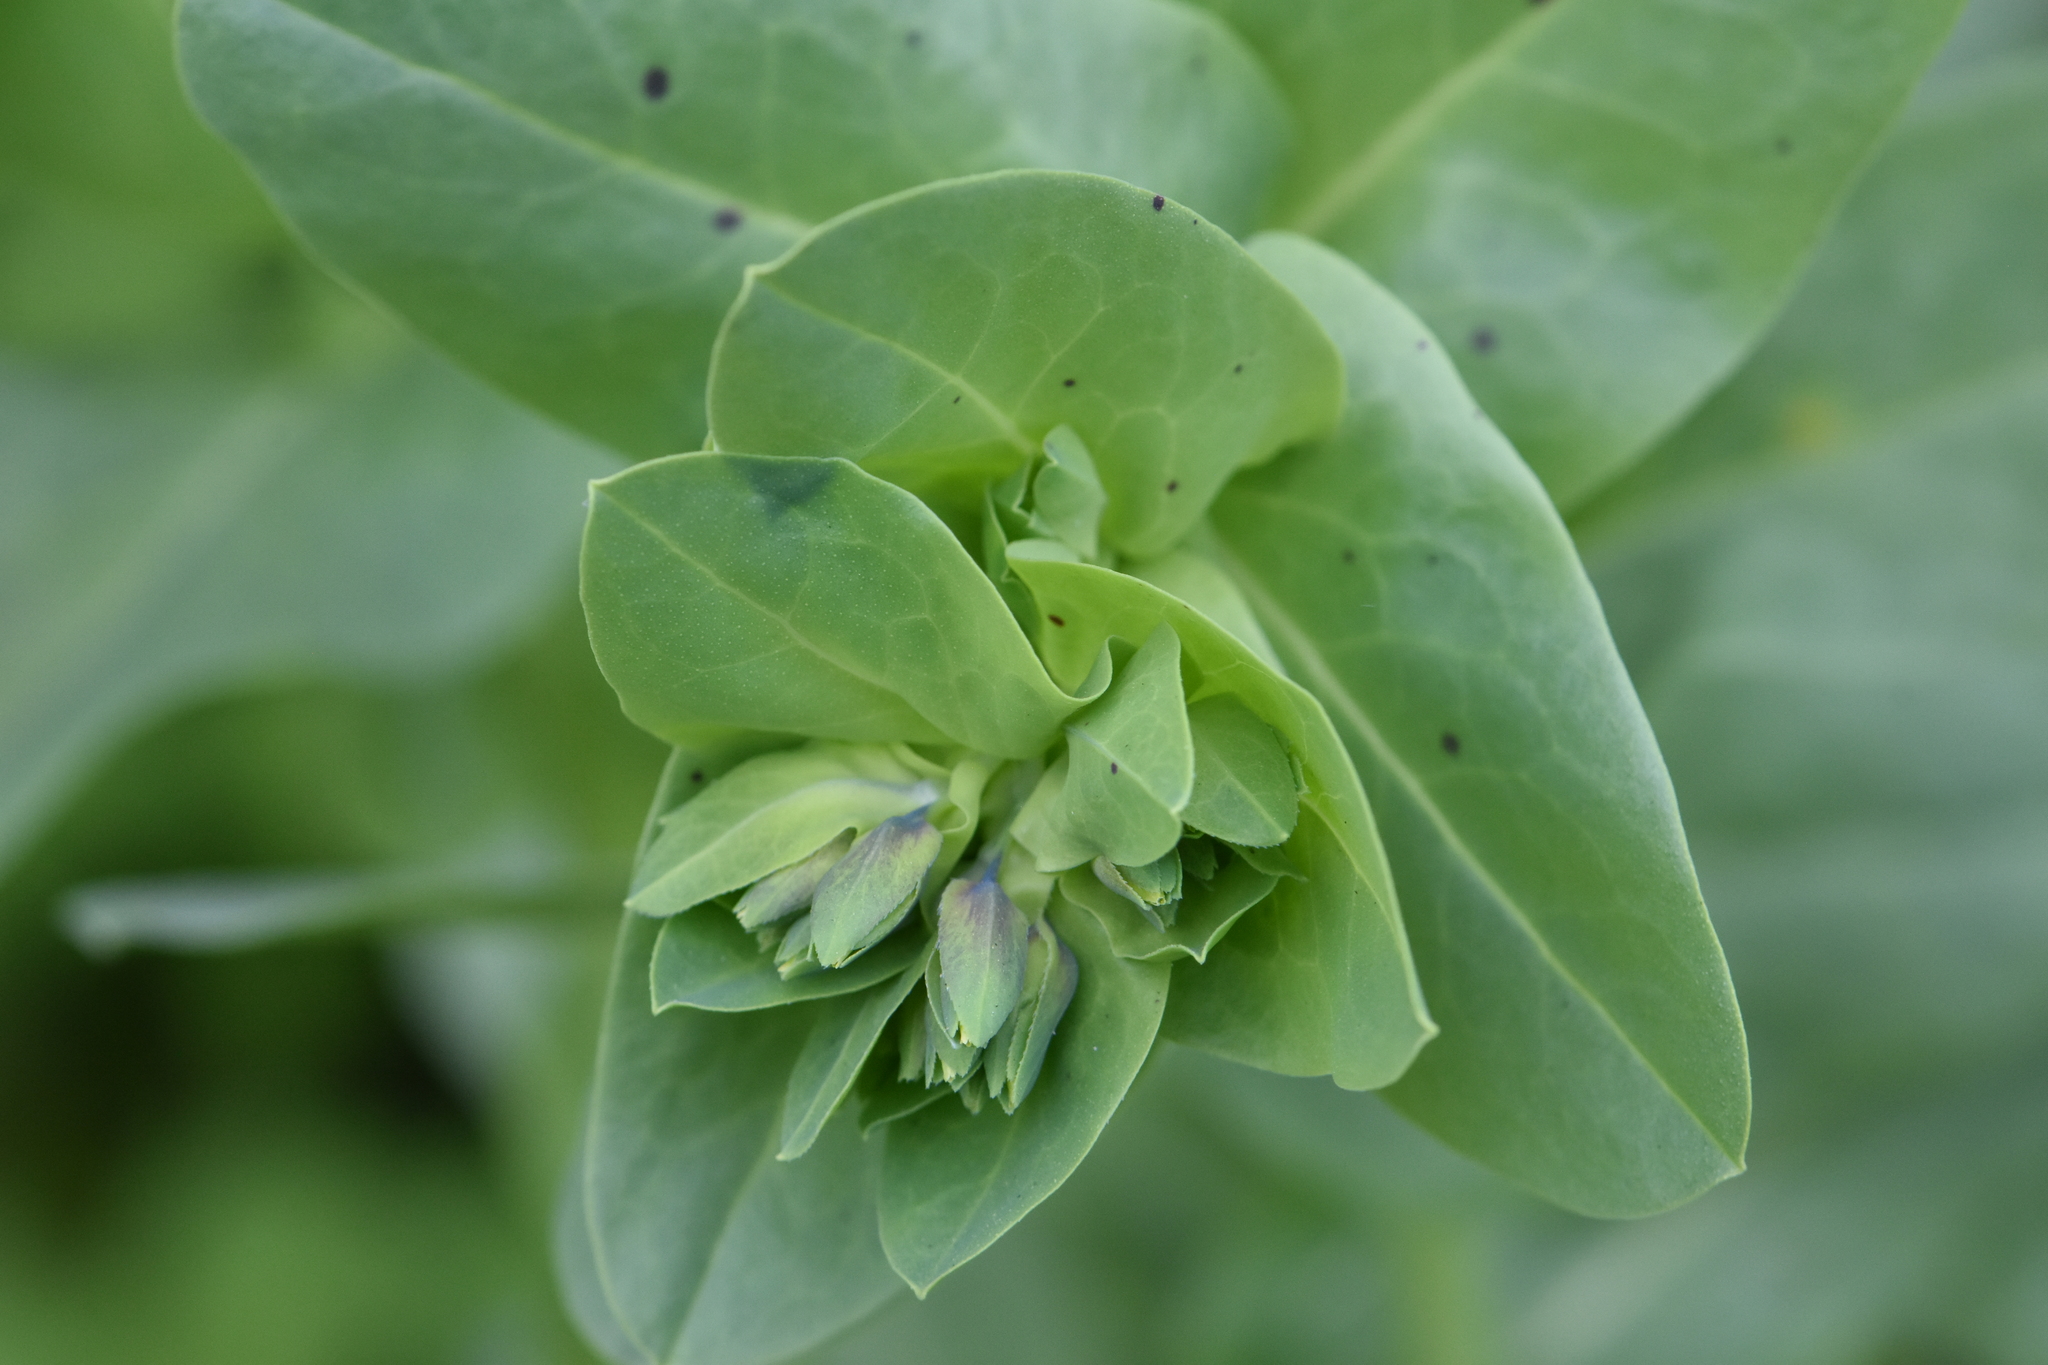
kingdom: Plantae
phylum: Tracheophyta
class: Magnoliopsida
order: Boraginales
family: Boraginaceae
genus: Cerinthe
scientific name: Cerinthe minor
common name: Lesser honeywort
